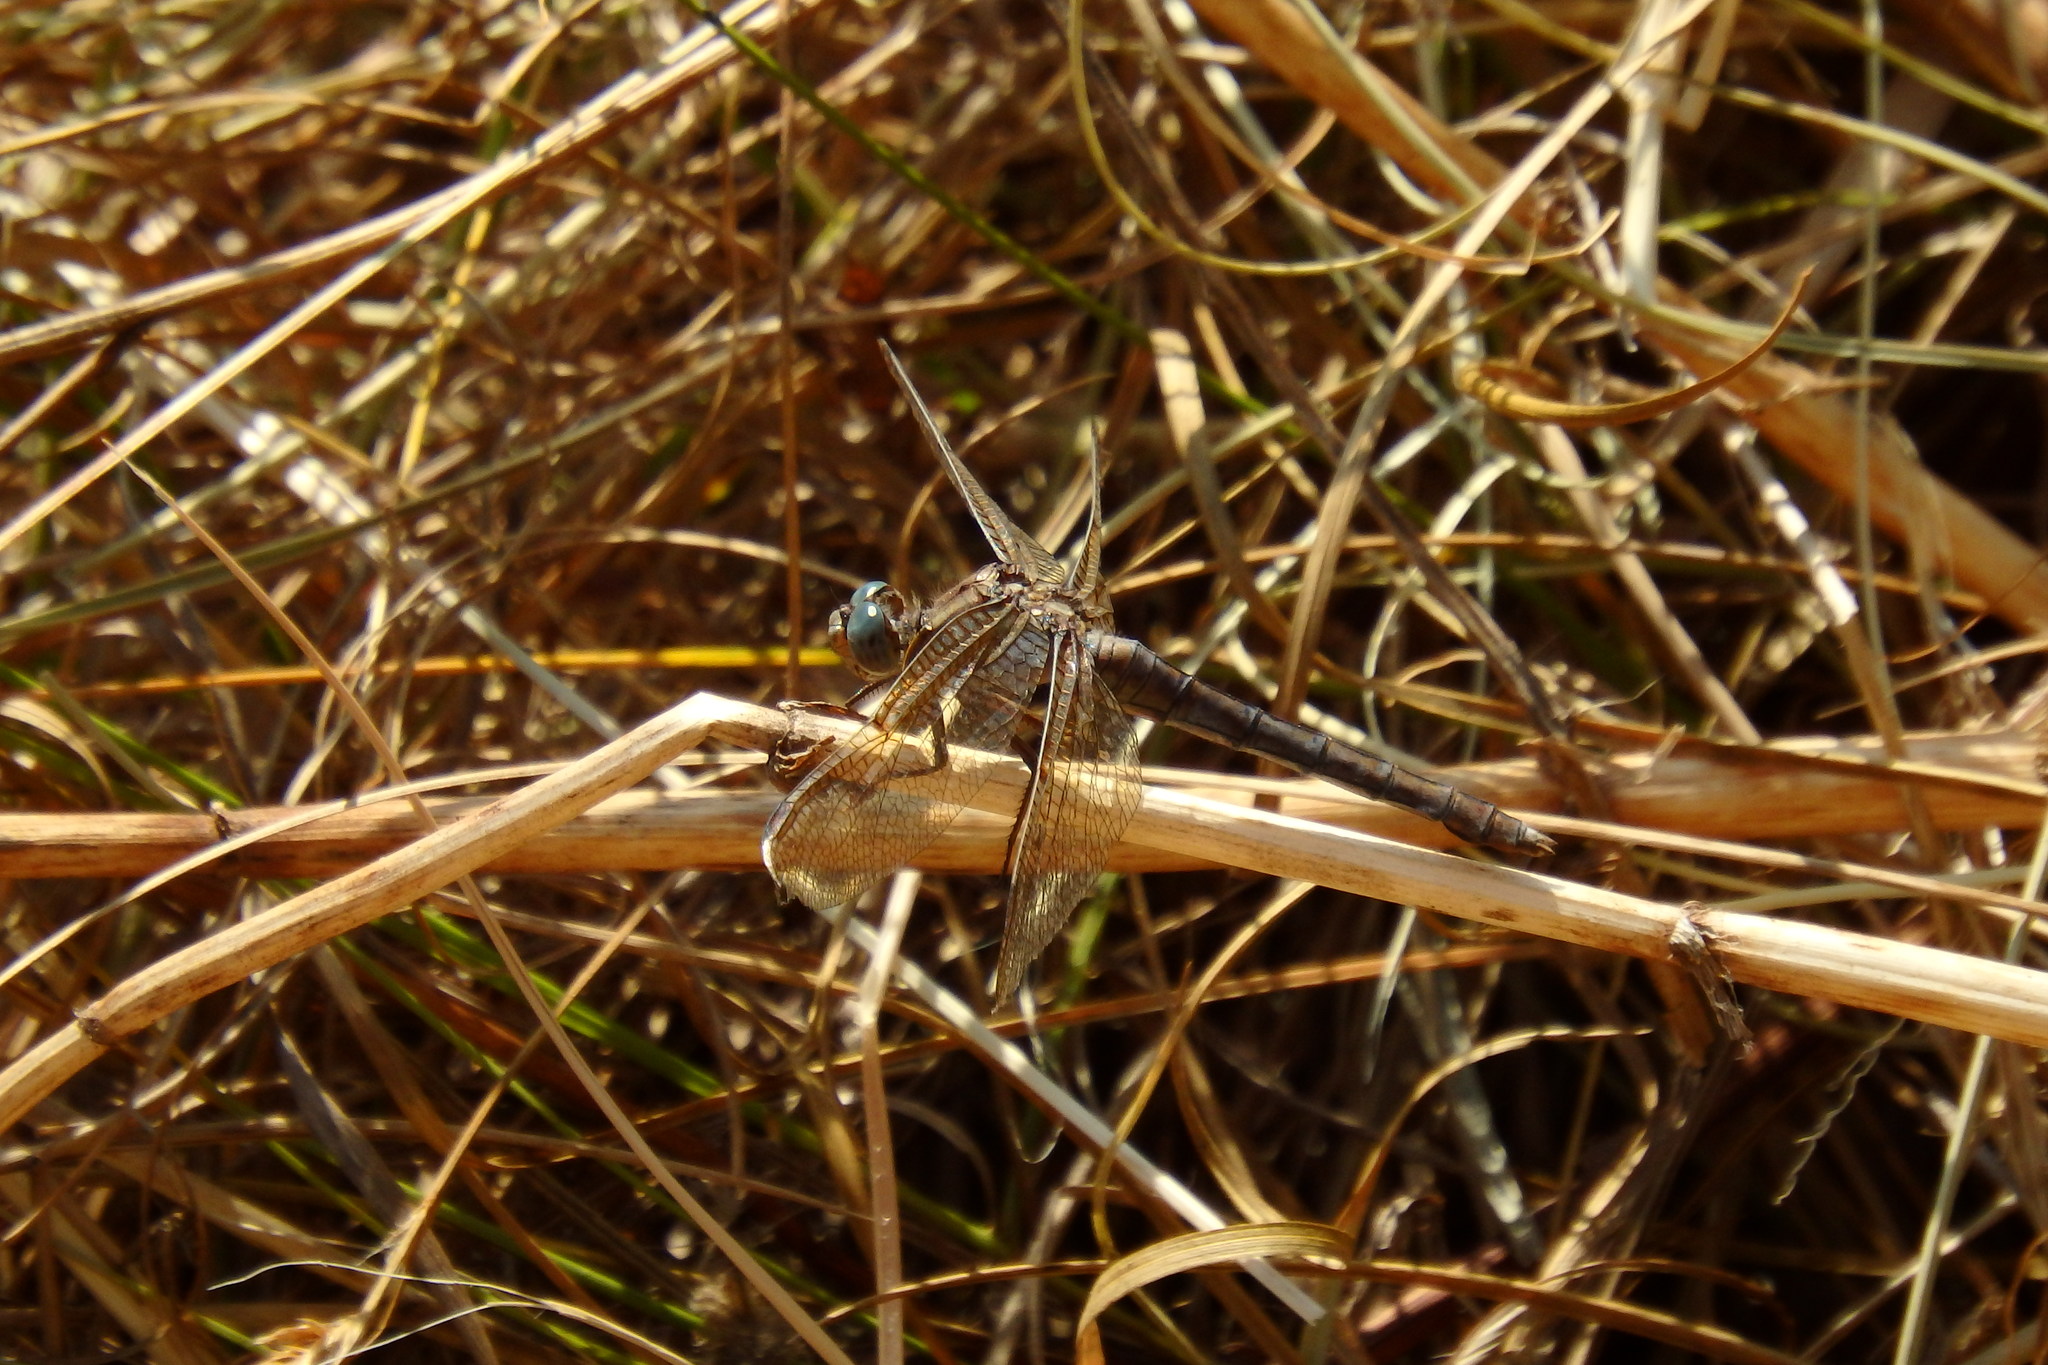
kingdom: Animalia
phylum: Arthropoda
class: Insecta
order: Odonata
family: Libellulidae
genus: Orthetrum
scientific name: Orthetrum coerulescens
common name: Keeled skimmer
